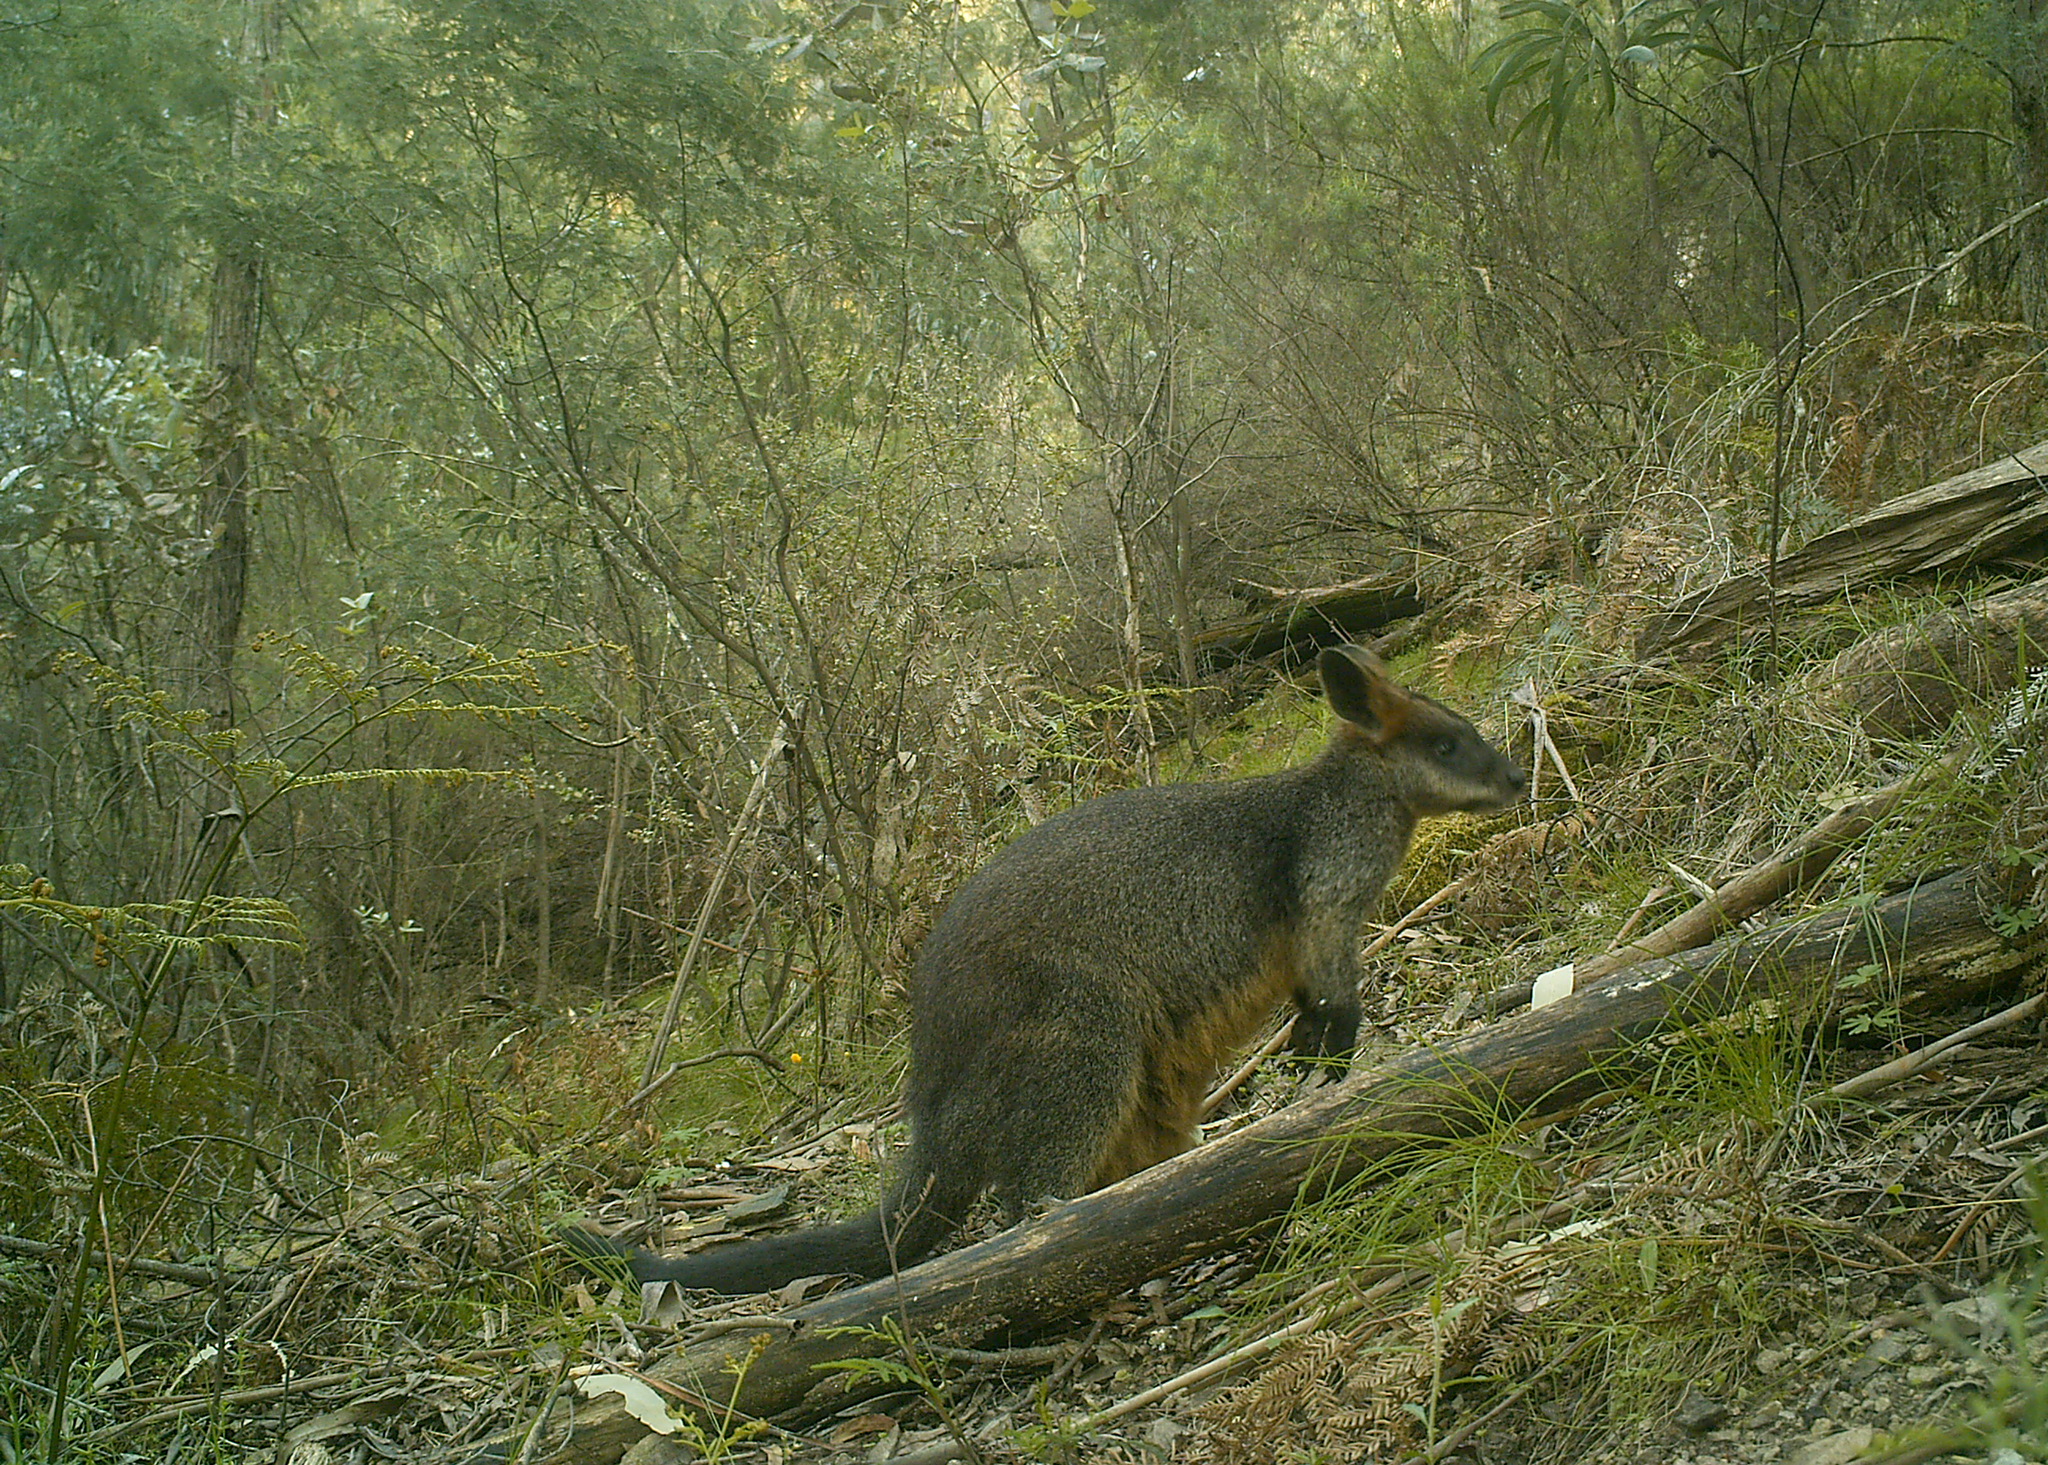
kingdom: Animalia
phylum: Chordata
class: Mammalia
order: Diprotodontia
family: Macropodidae
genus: Wallabia
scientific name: Wallabia bicolor
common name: Swamp wallaby
